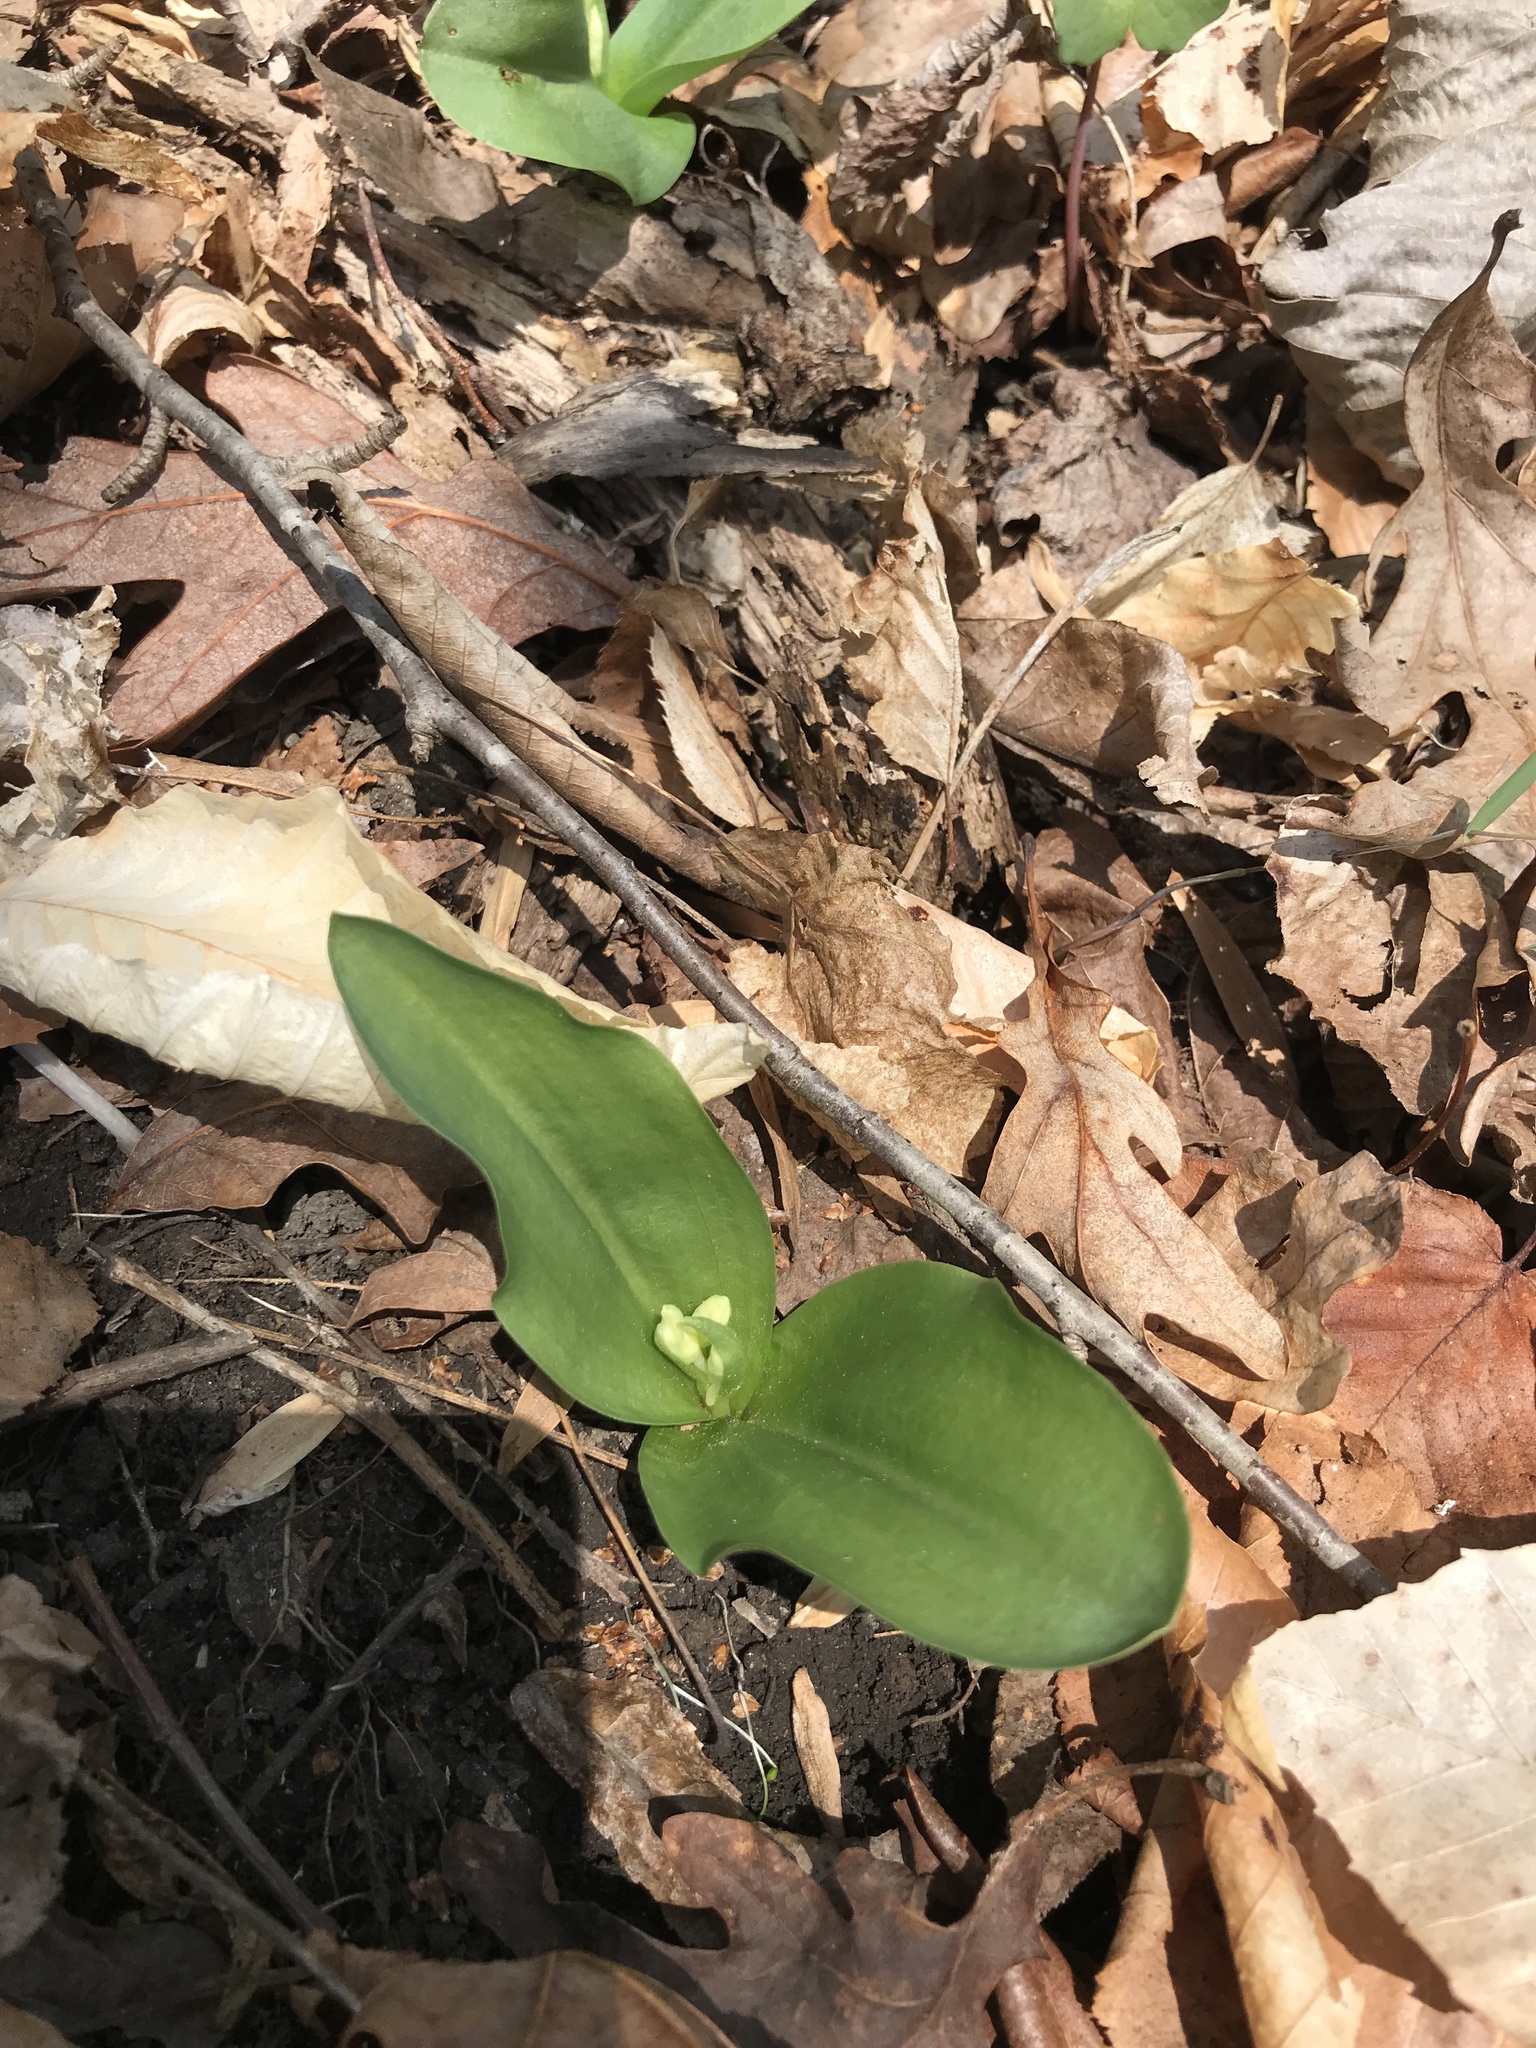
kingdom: Plantae
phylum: Tracheophyta
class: Liliopsida
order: Asparagales
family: Orchidaceae
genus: Galearis
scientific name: Galearis spectabilis
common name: Purple-hooded orchis
